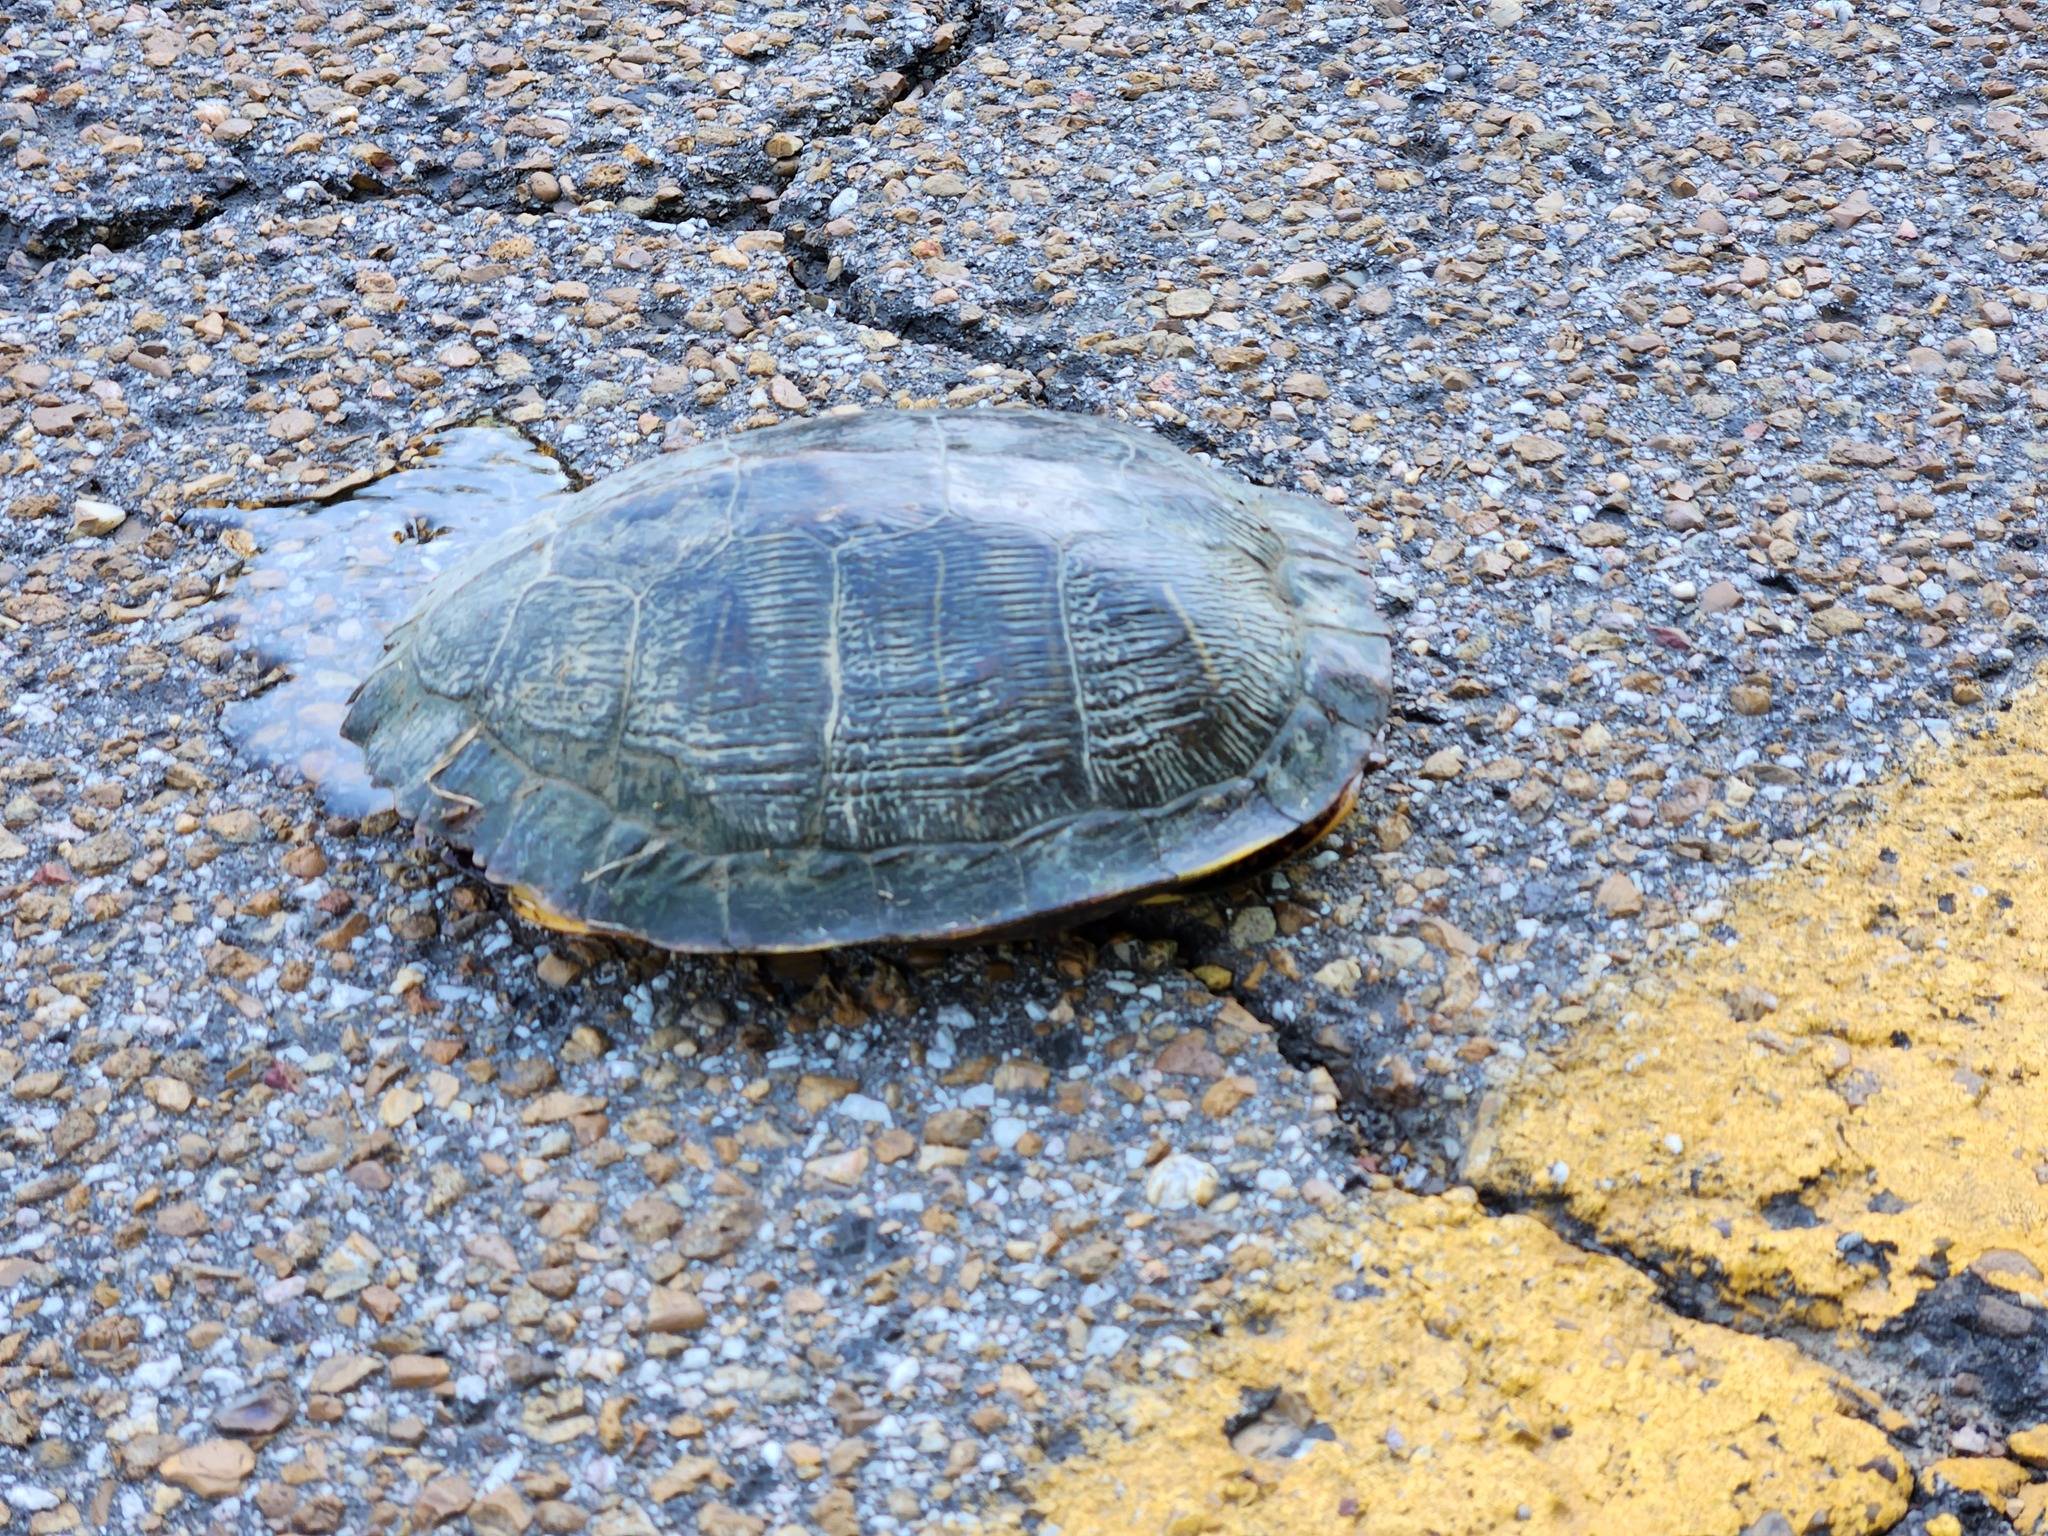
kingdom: Animalia
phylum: Chordata
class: Testudines
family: Emydidae
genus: Trachemys
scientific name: Trachemys scripta
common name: Slider
